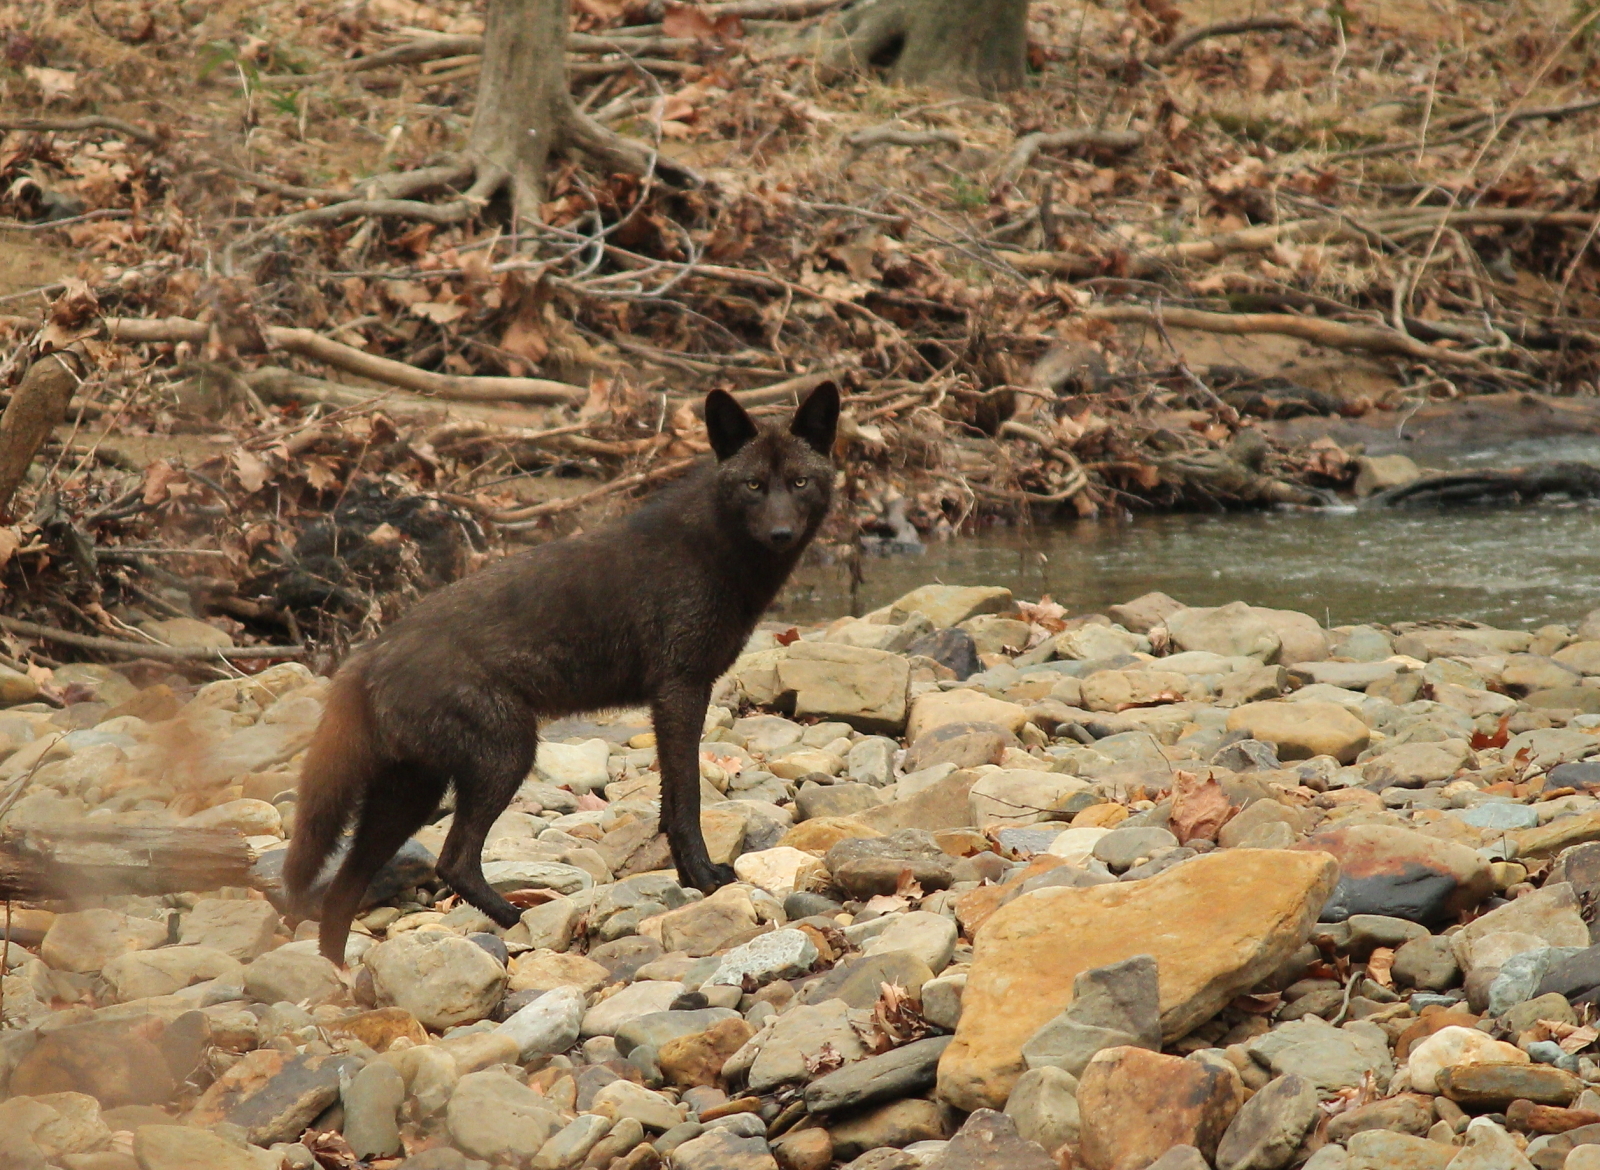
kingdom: Animalia
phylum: Chordata
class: Mammalia
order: Carnivora
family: Canidae
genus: Canis
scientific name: Canis latrans
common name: Coyote
